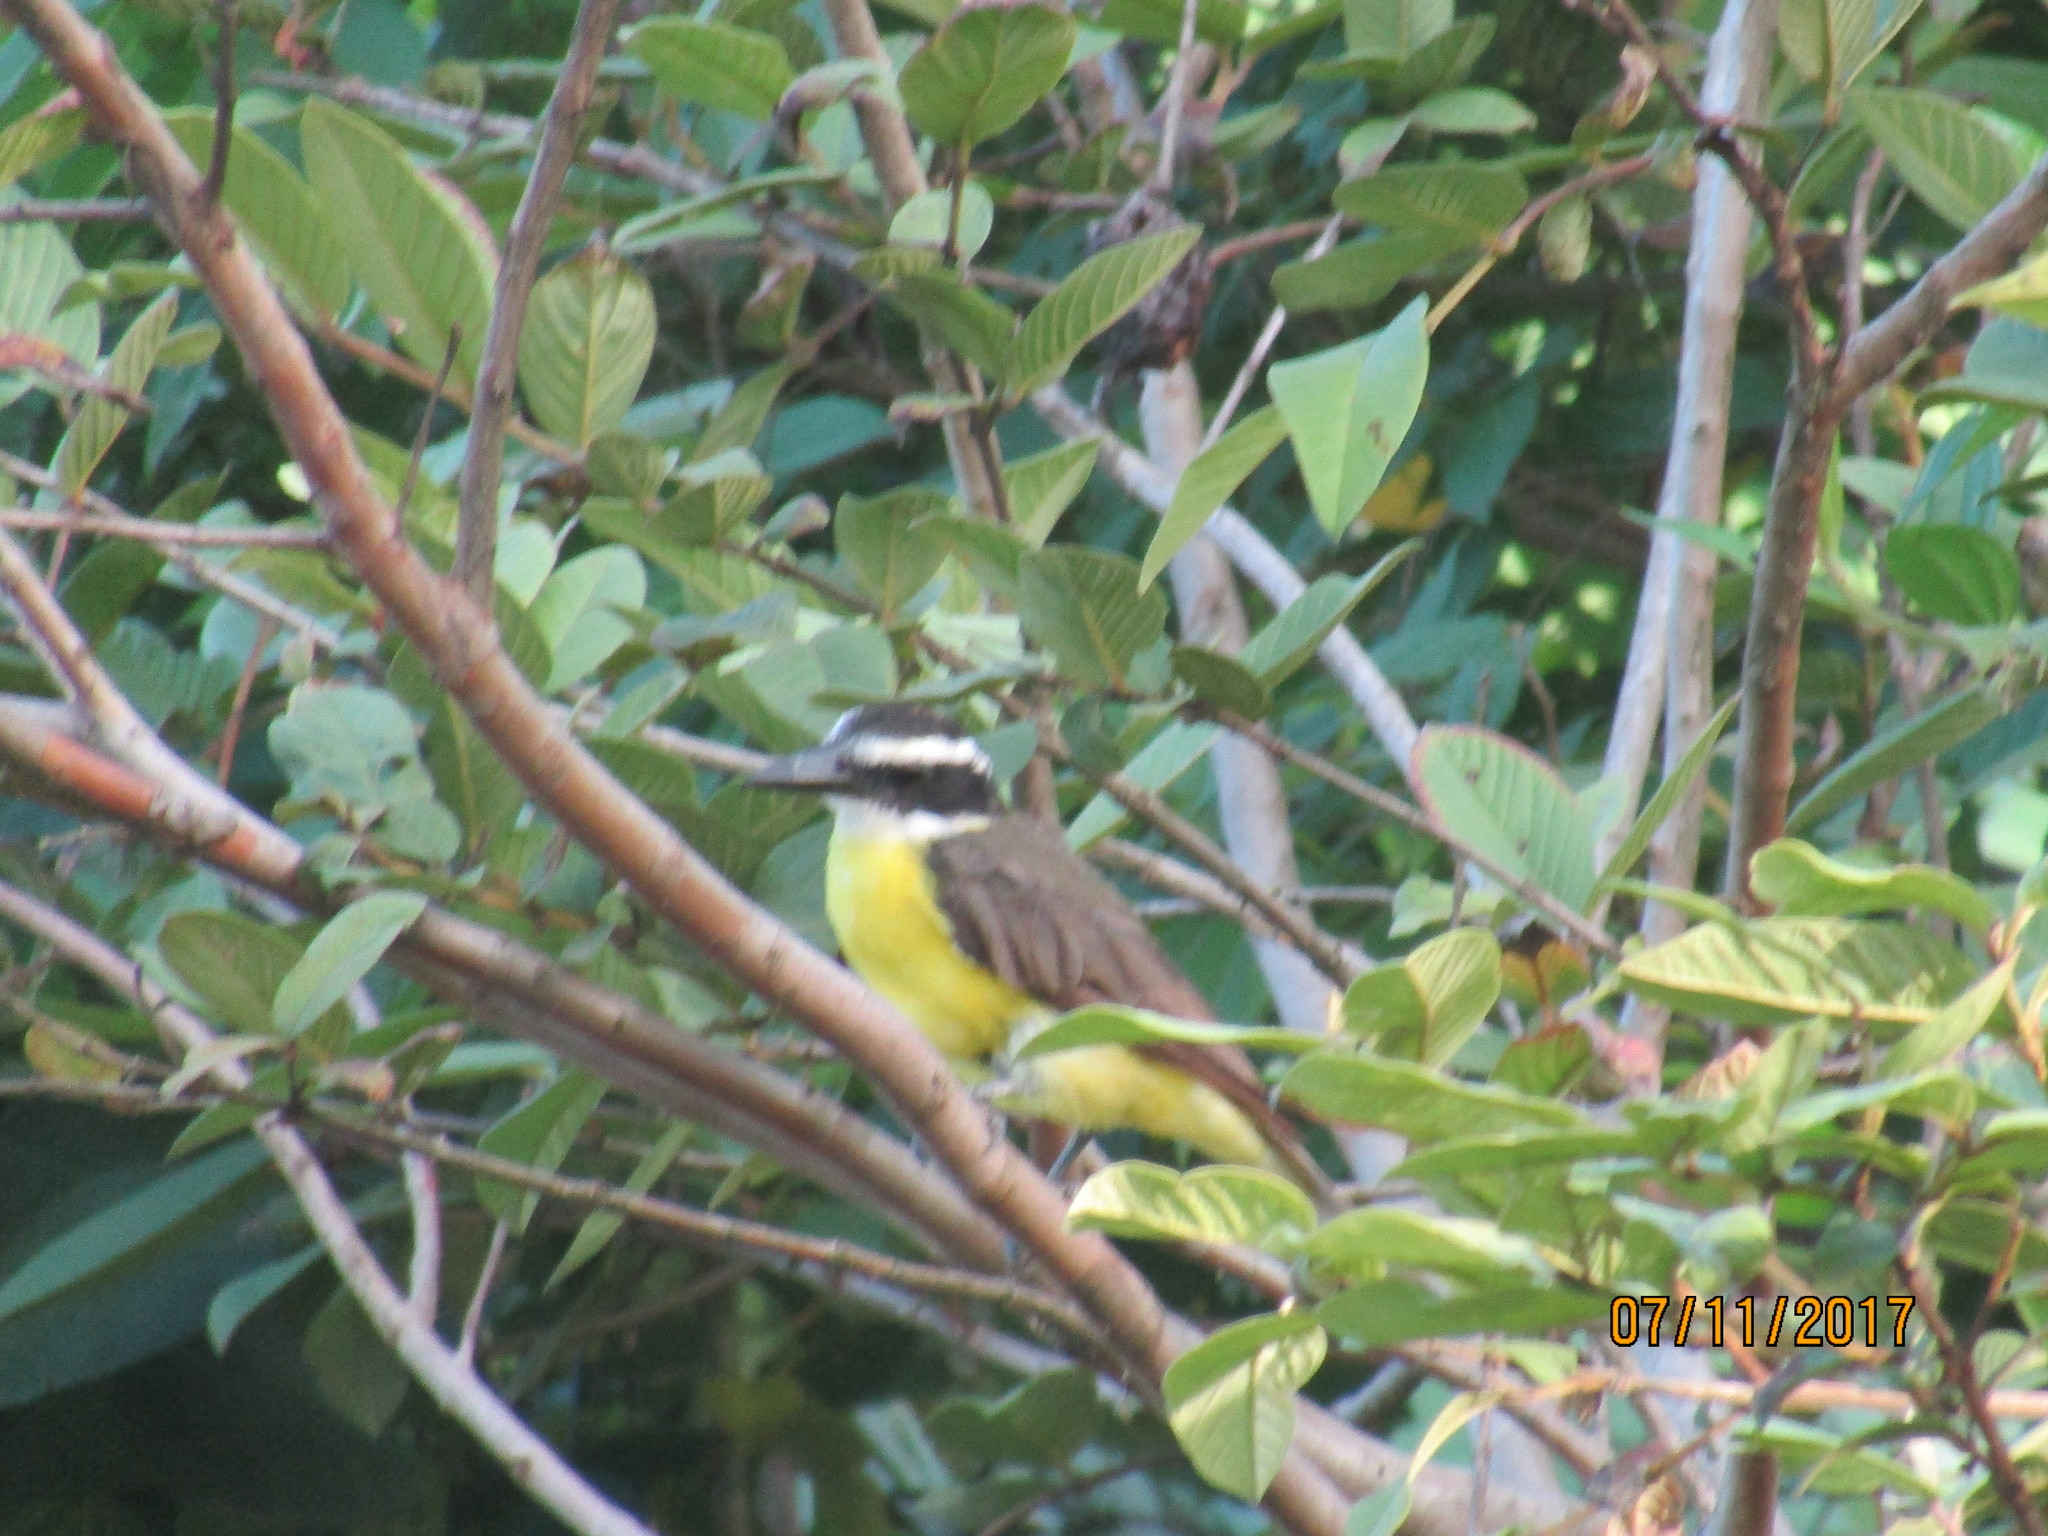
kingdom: Animalia
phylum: Chordata
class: Aves
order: Passeriformes
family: Tyrannidae
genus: Pitangus
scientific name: Pitangus sulphuratus
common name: Great kiskadee
